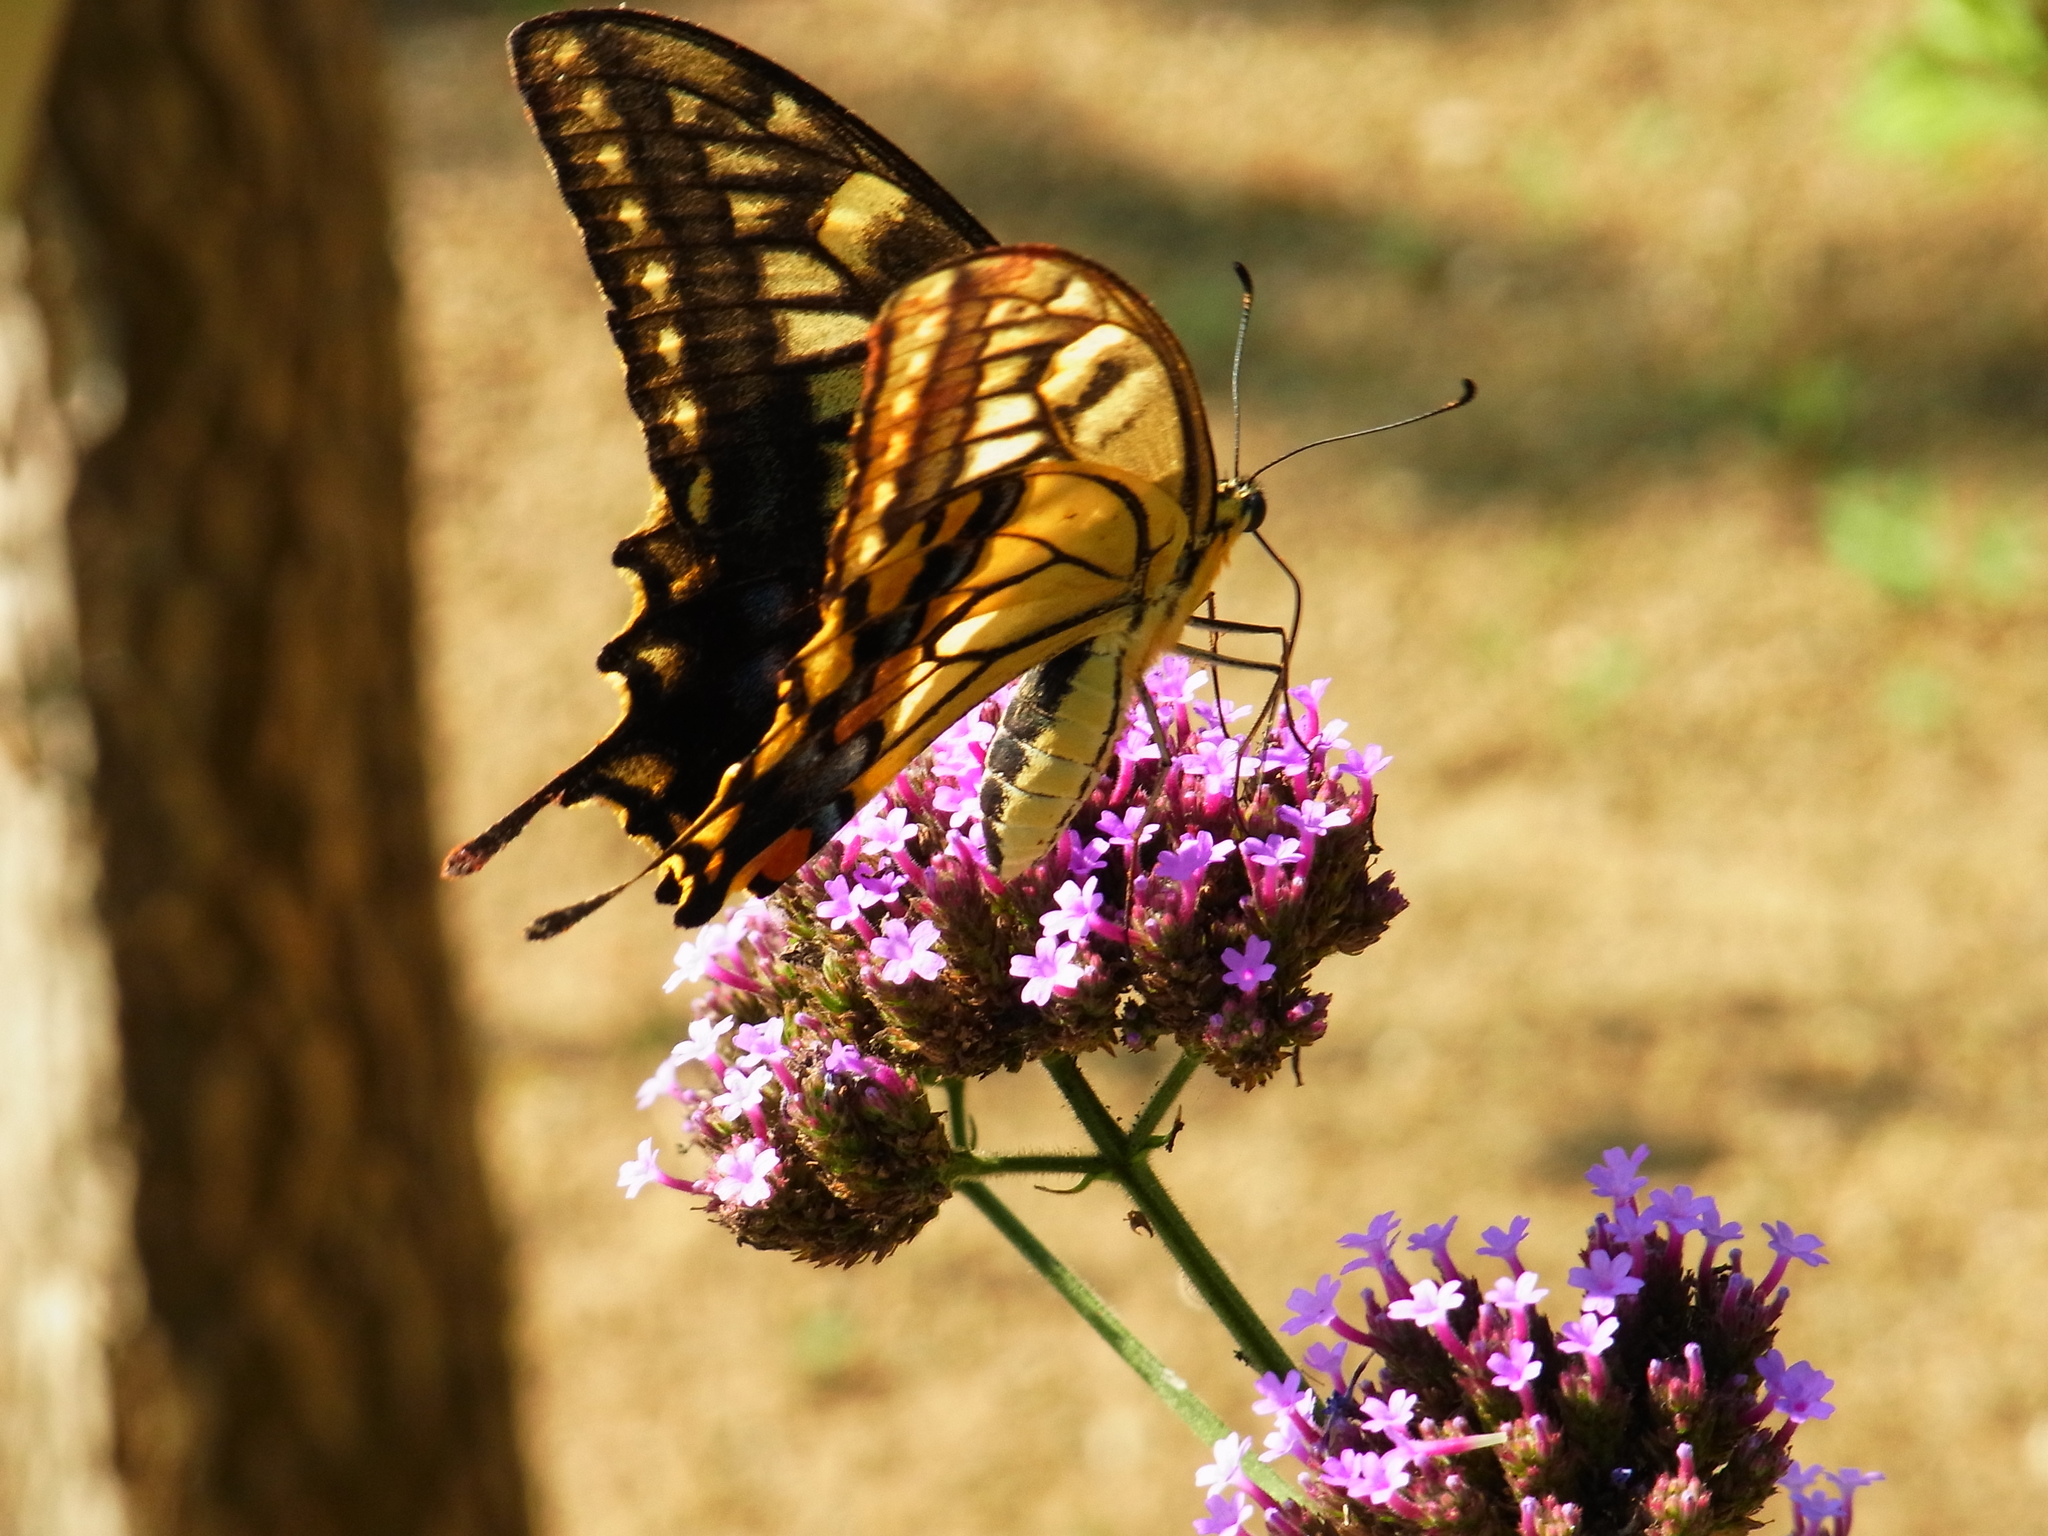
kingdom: Animalia
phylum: Arthropoda
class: Insecta
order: Lepidoptera
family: Papilionidae
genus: Papilio
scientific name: Papilio machaon
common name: Swallowtail
